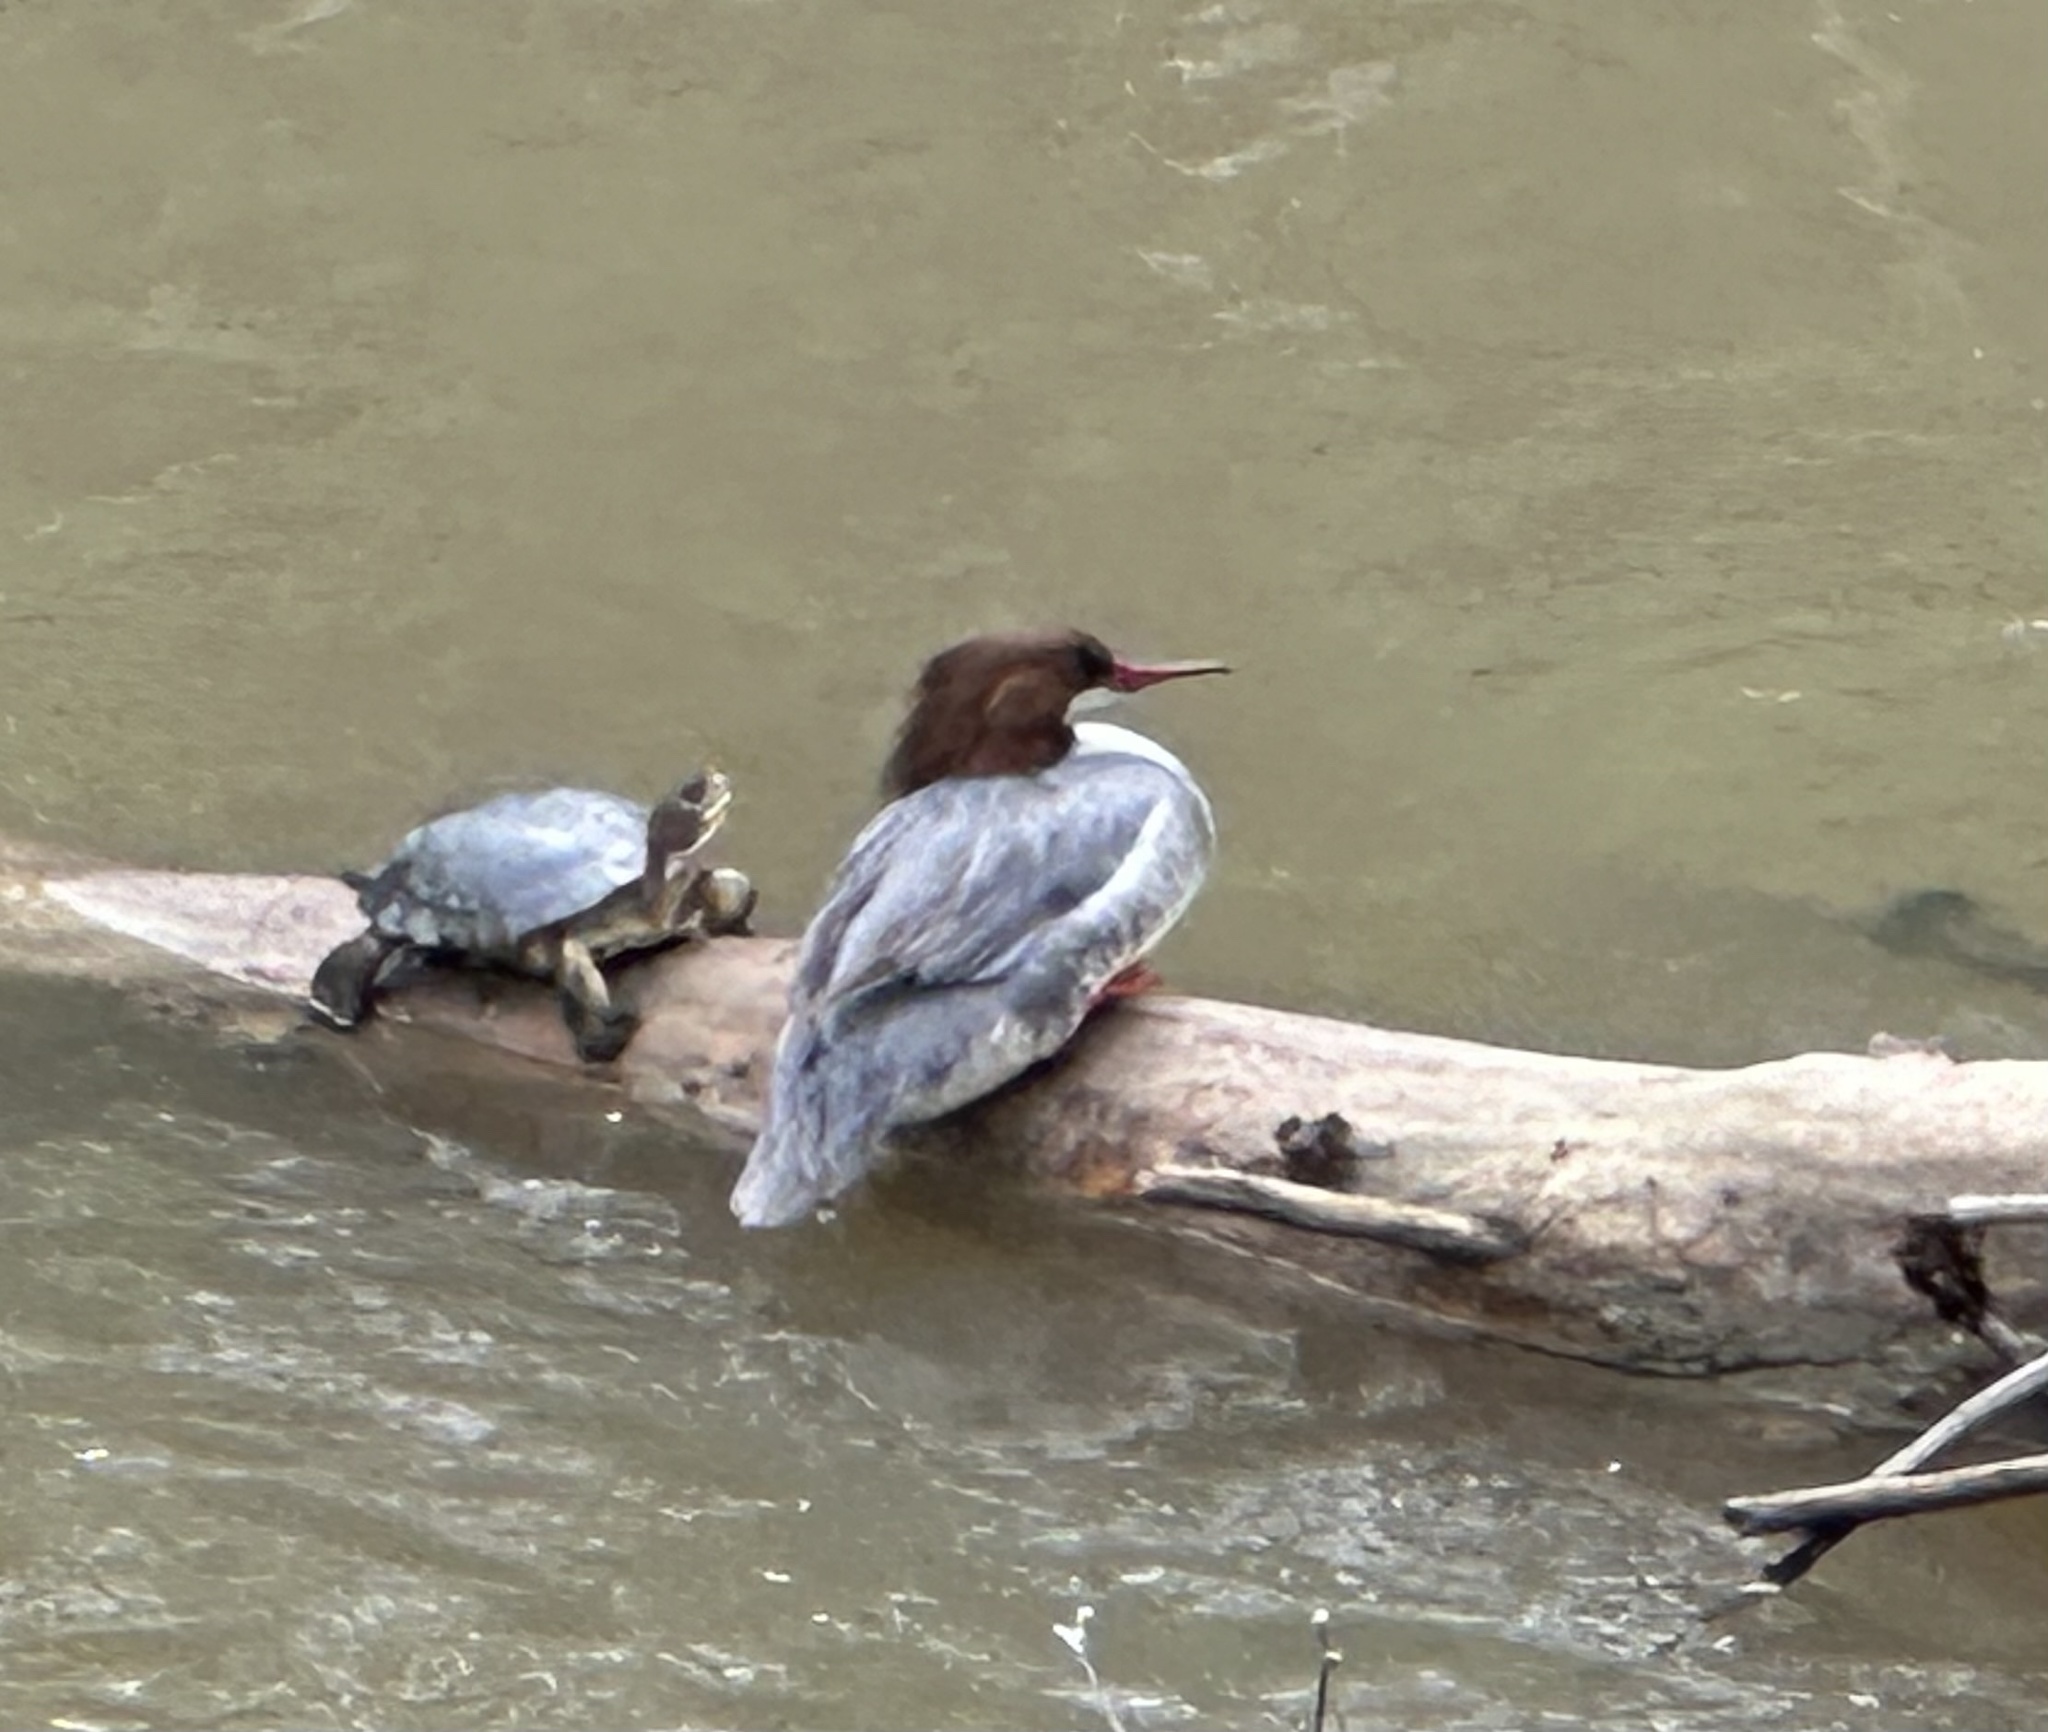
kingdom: Animalia
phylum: Chordata
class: Aves
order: Anseriformes
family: Anatidae
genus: Mergus
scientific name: Mergus merganser
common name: Common merganser
